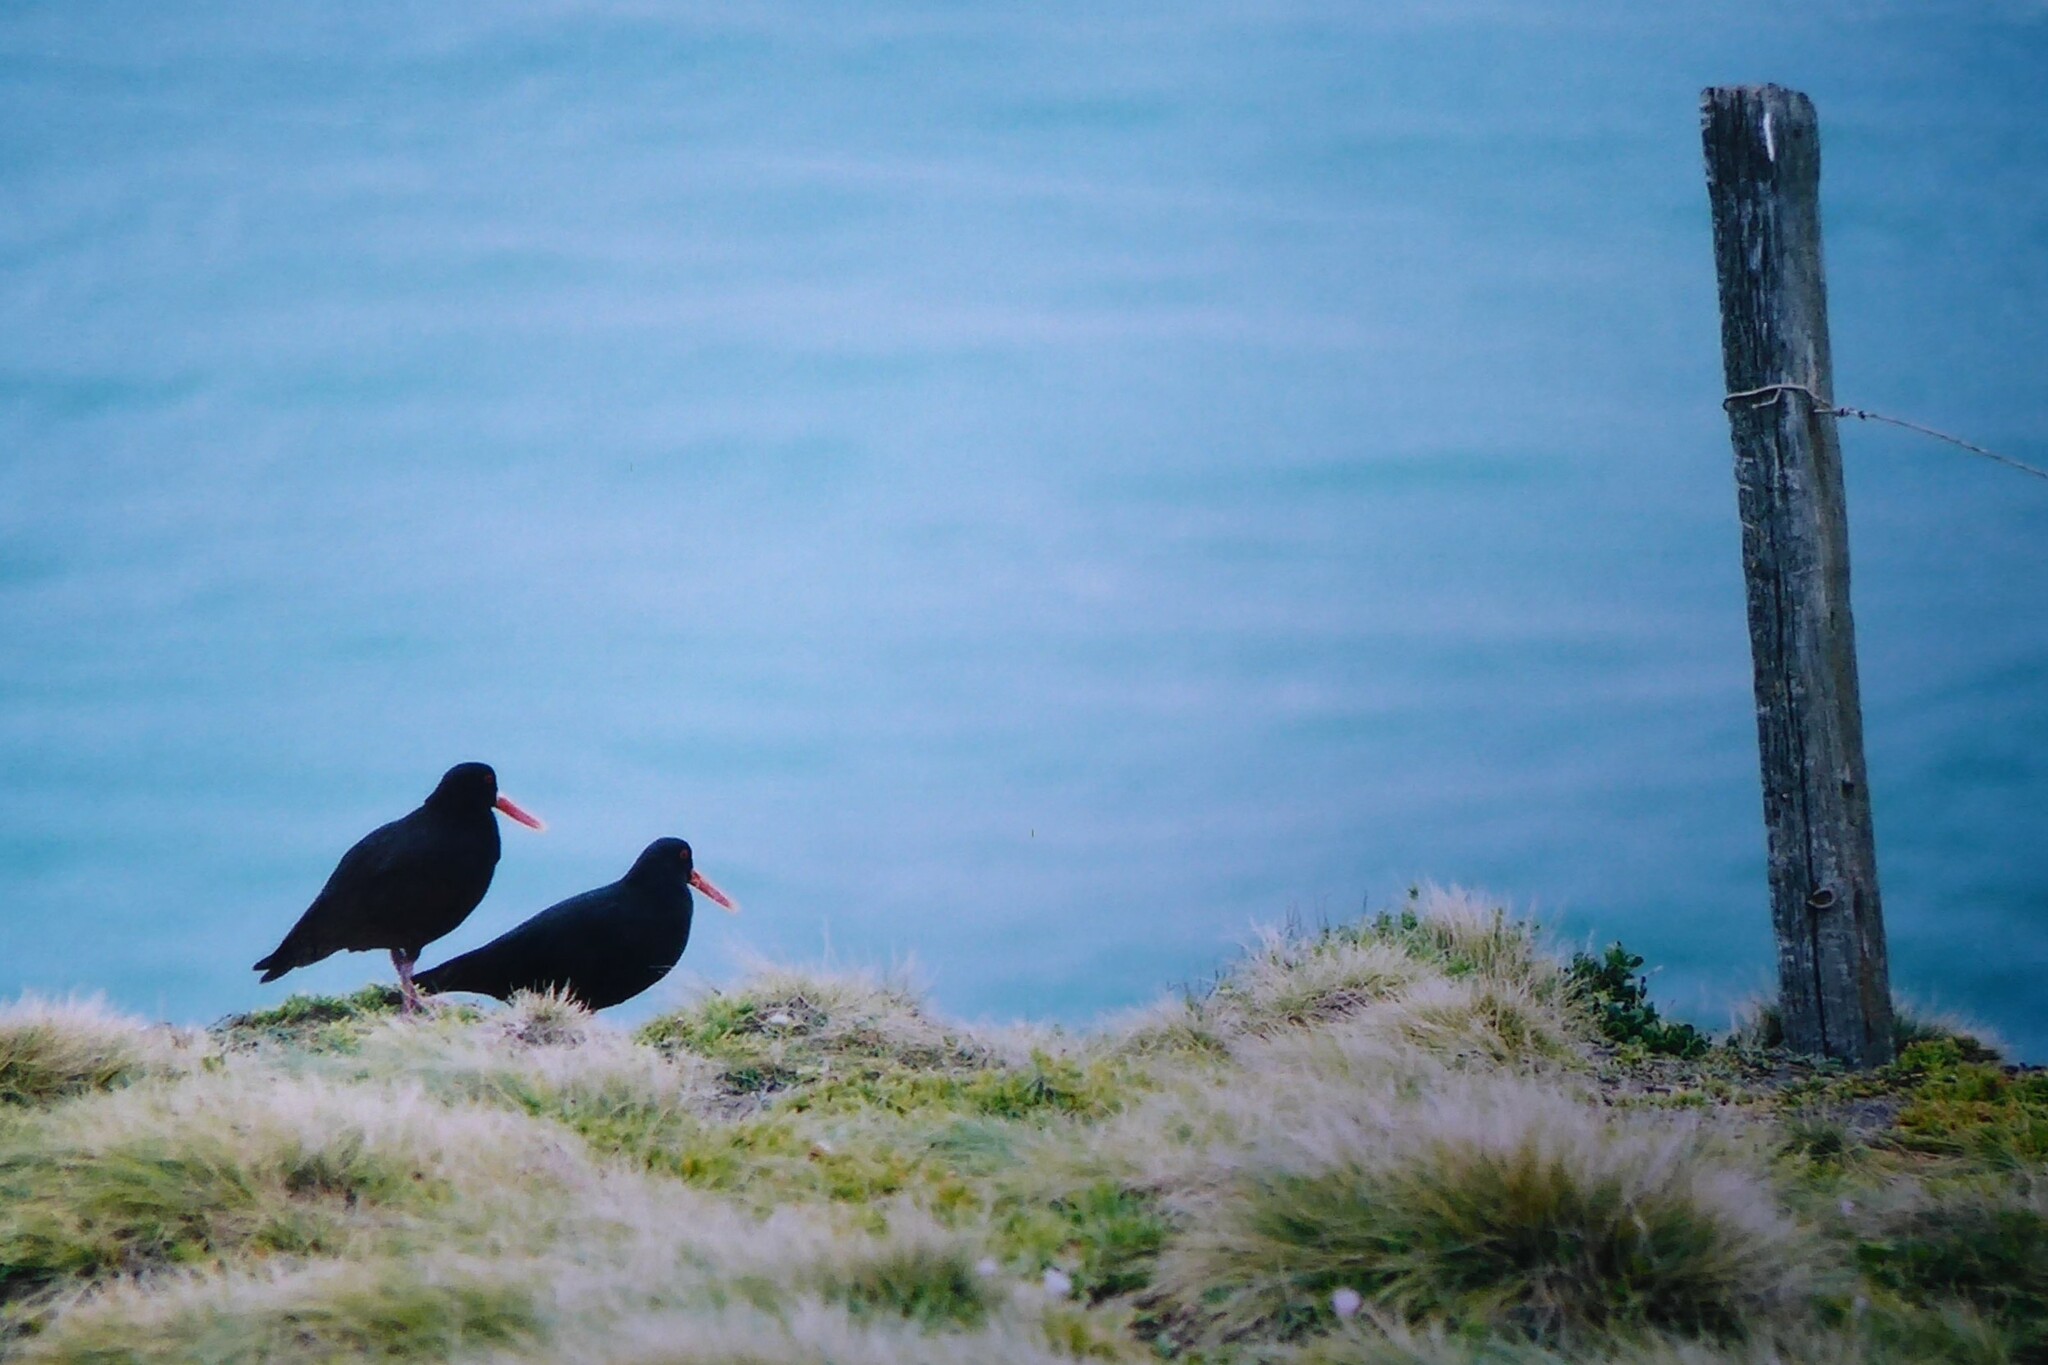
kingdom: Animalia
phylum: Chordata
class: Aves
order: Charadriiformes
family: Haematopodidae
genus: Haematopus
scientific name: Haematopus unicolor
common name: Variable oystercatcher
